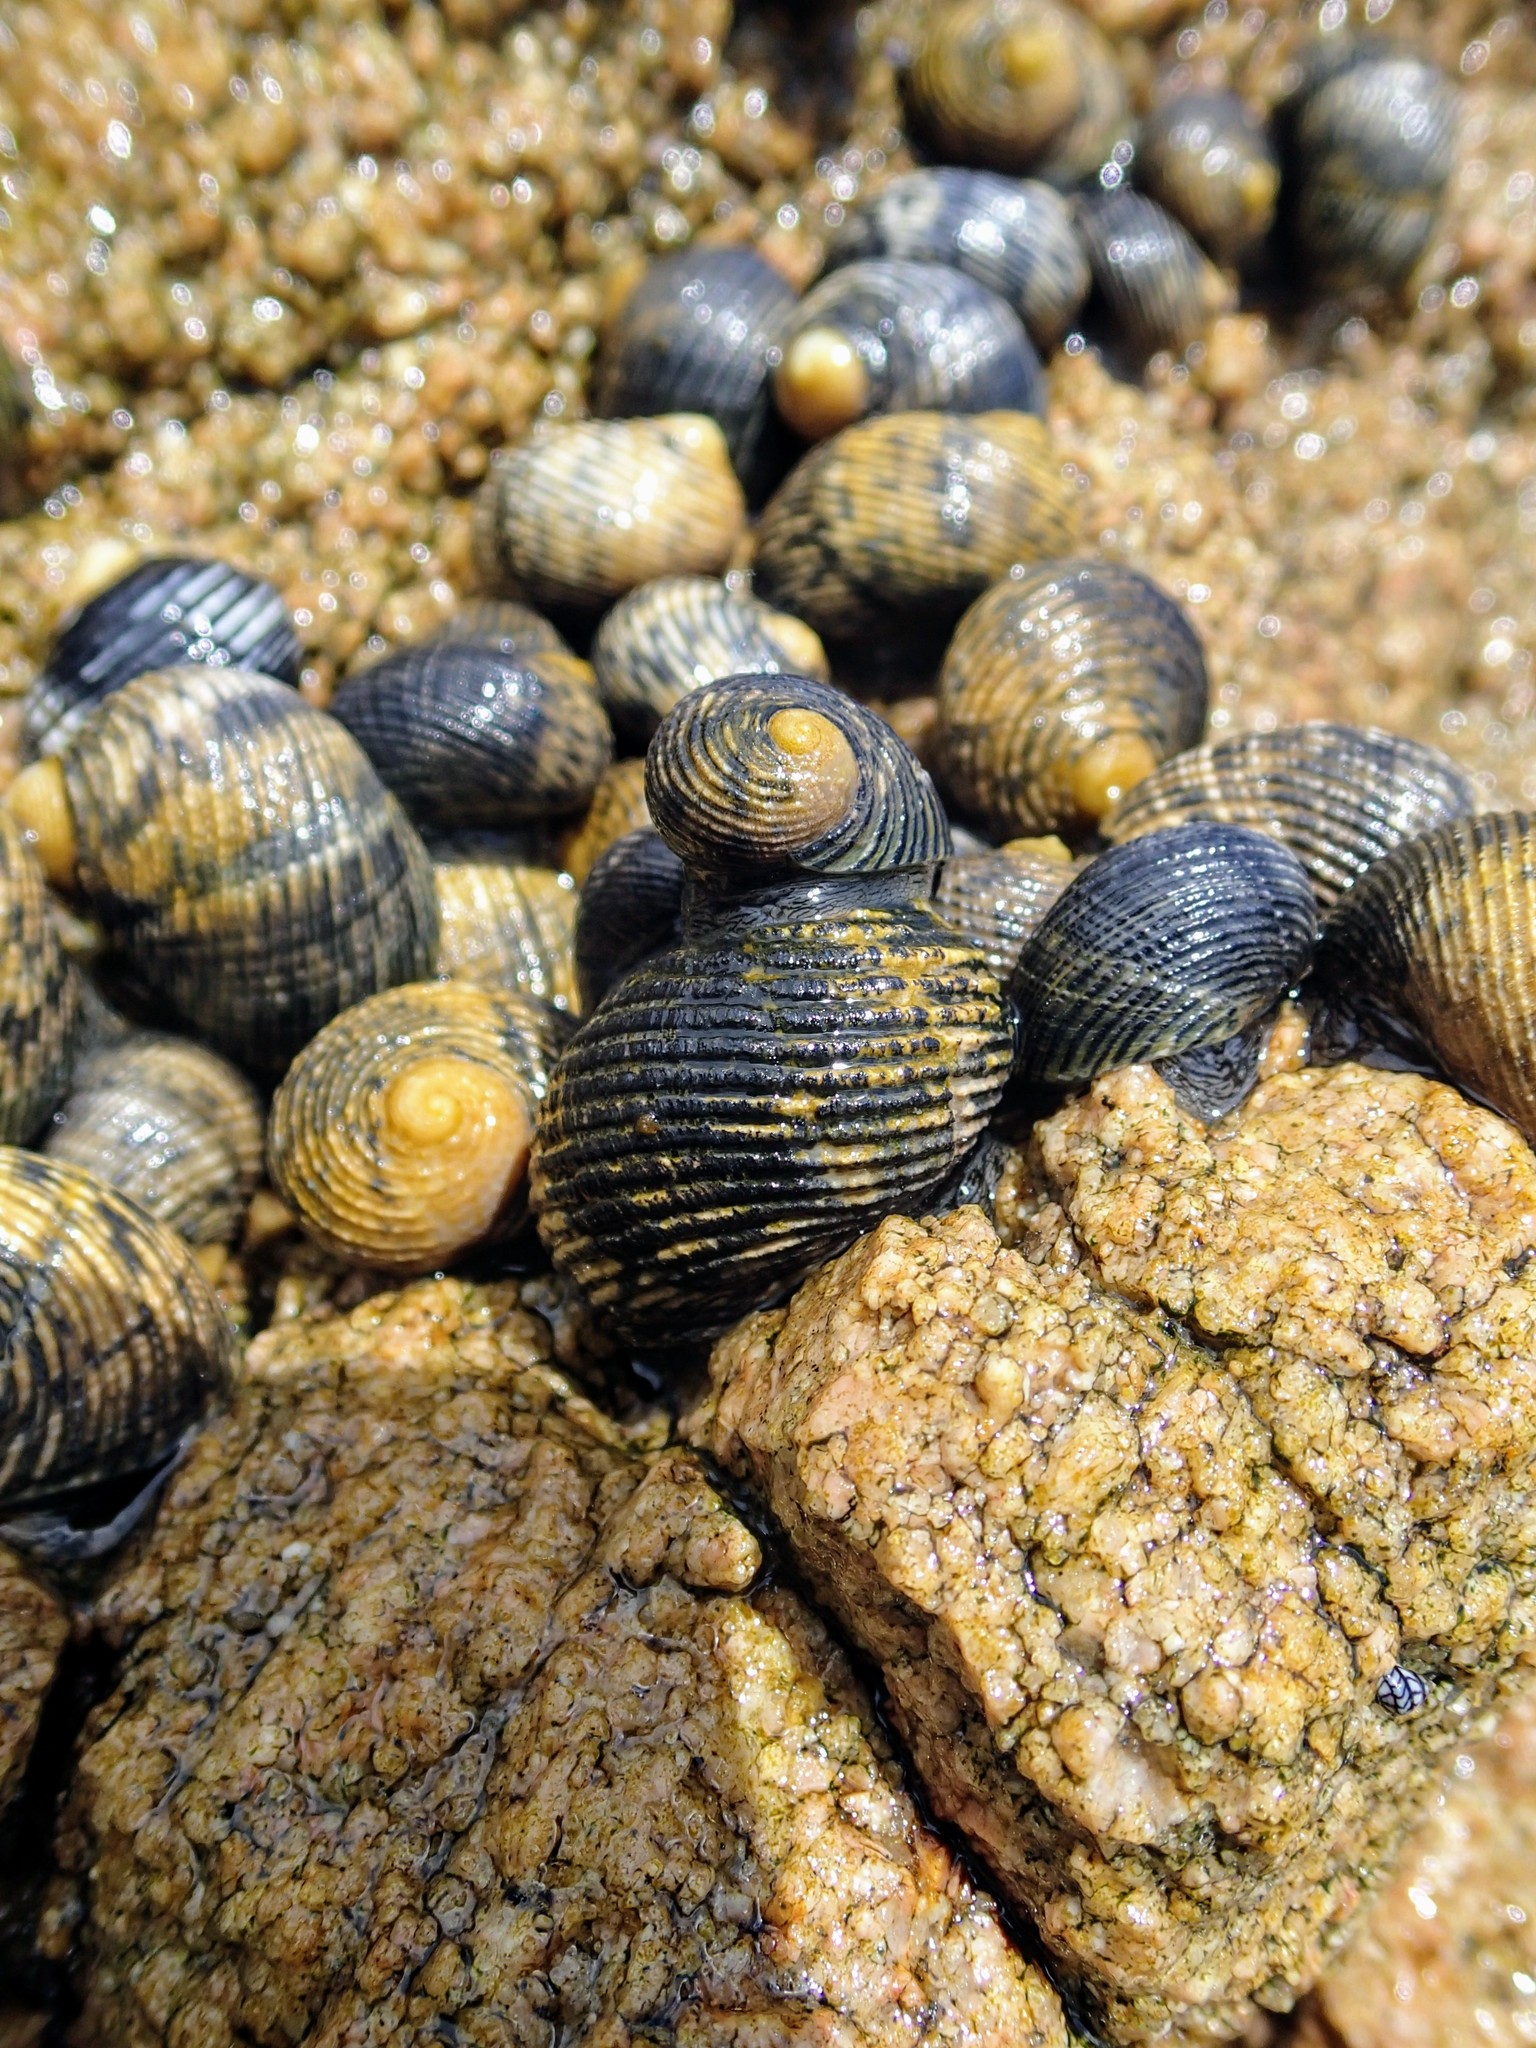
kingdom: Animalia
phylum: Mollusca
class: Gastropoda
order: Cycloneritida
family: Neritidae
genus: Nerita
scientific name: Nerita scabricosta
